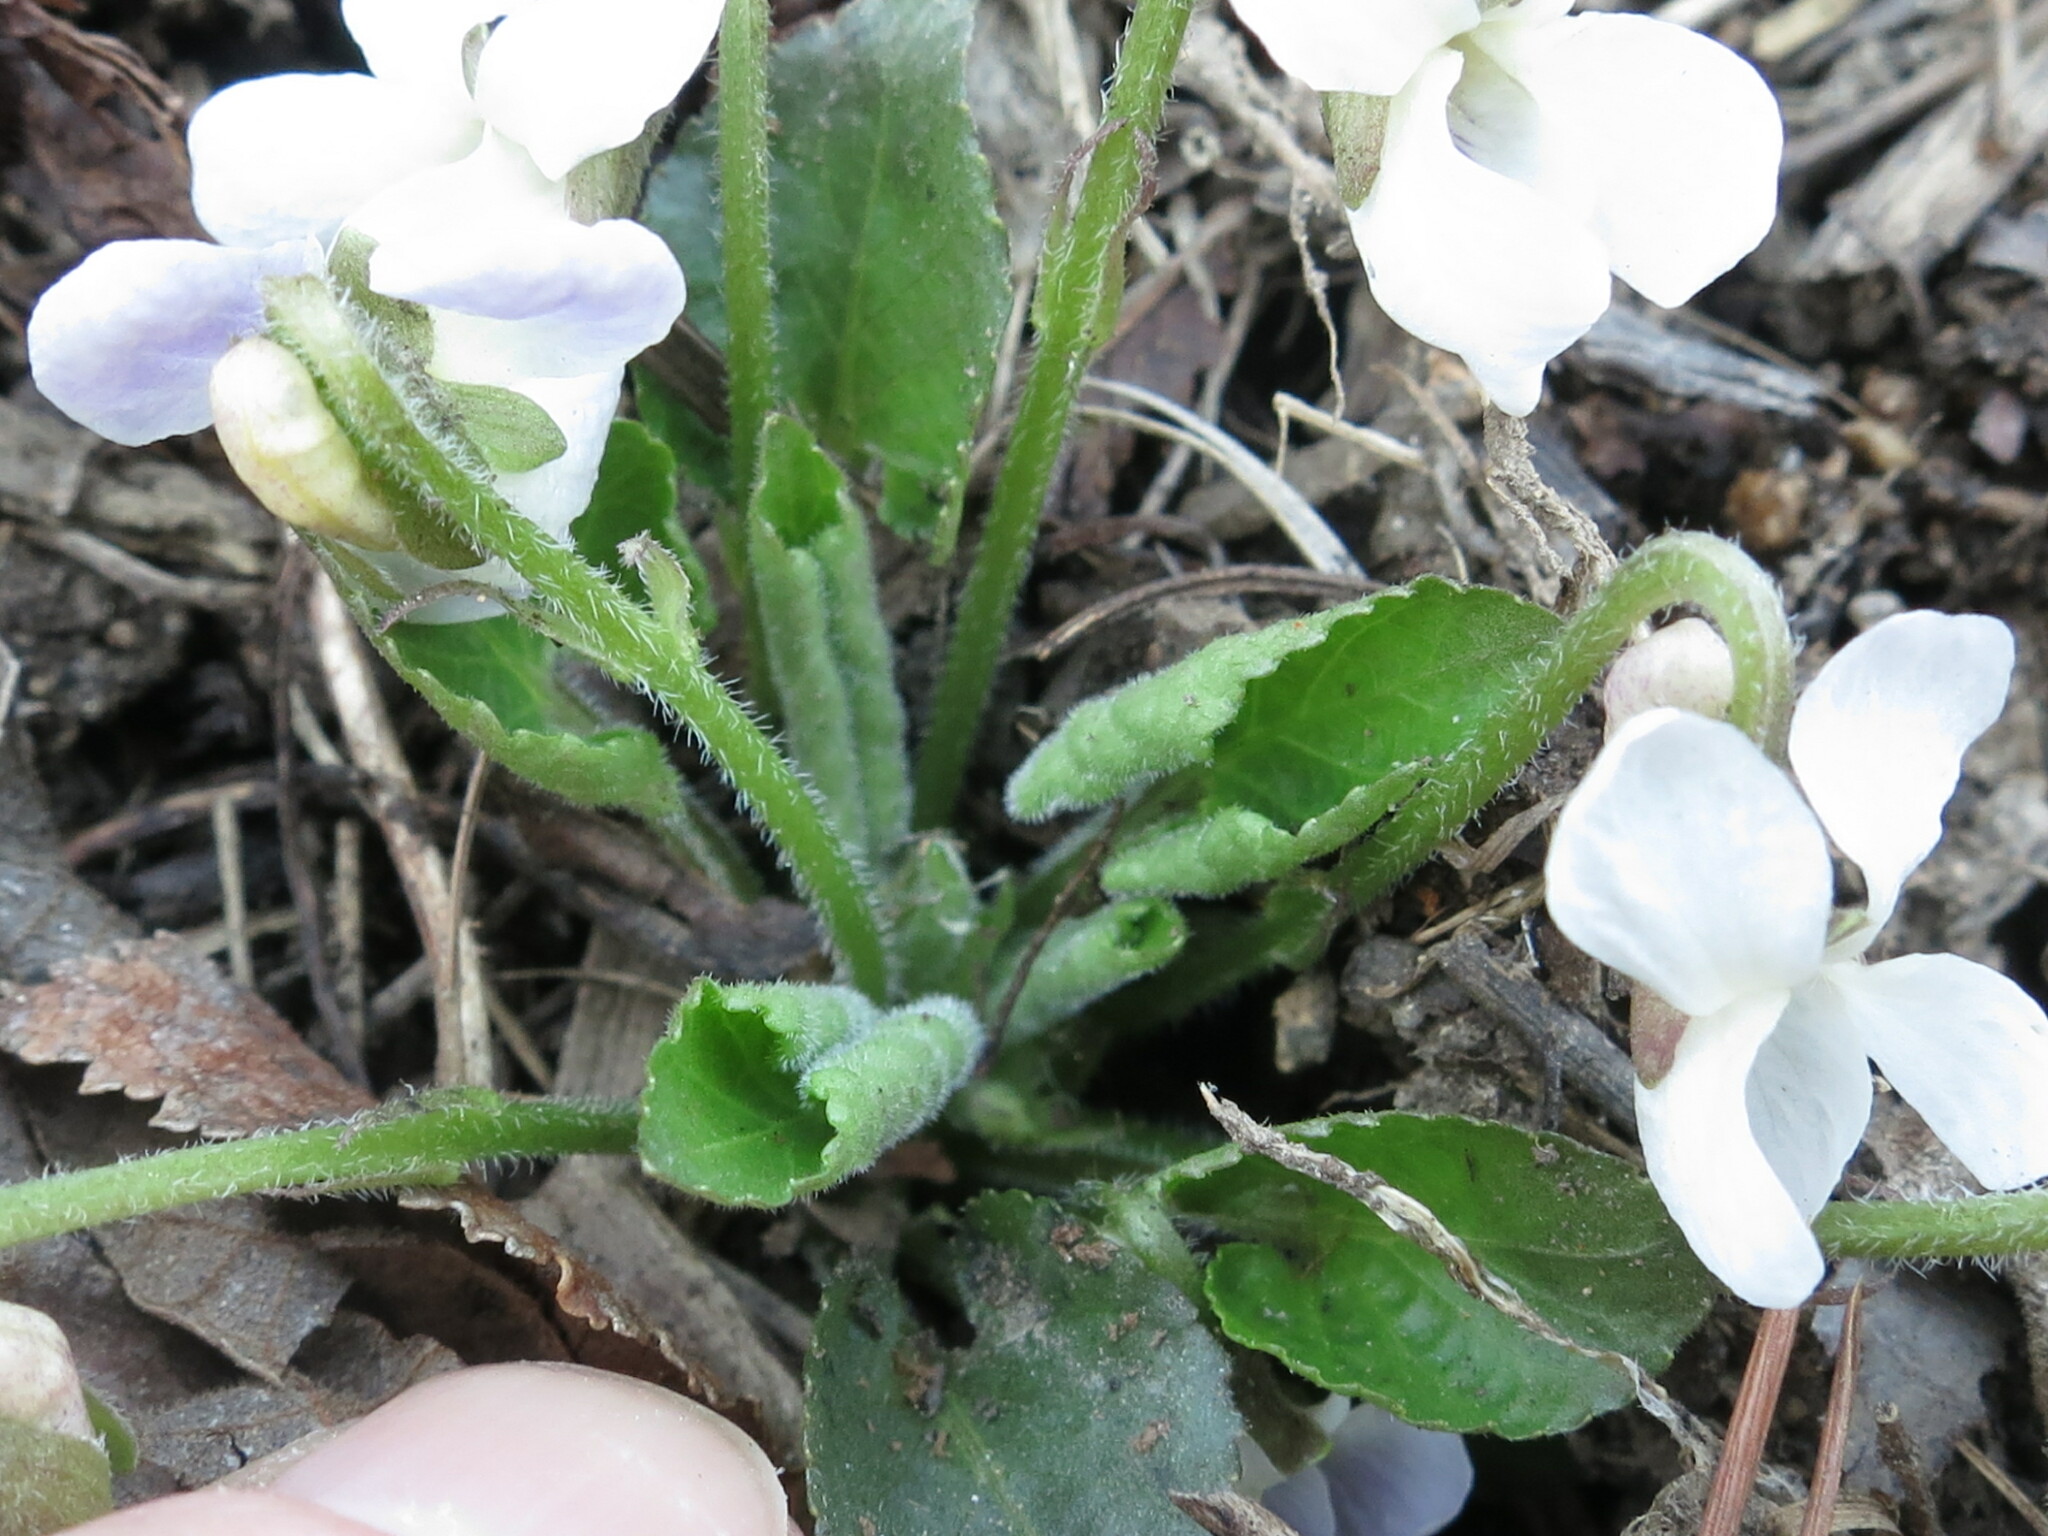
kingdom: Plantae
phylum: Tracheophyta
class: Magnoliopsida
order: Malpighiales
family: Violaceae
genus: Viola
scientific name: Viola collina
